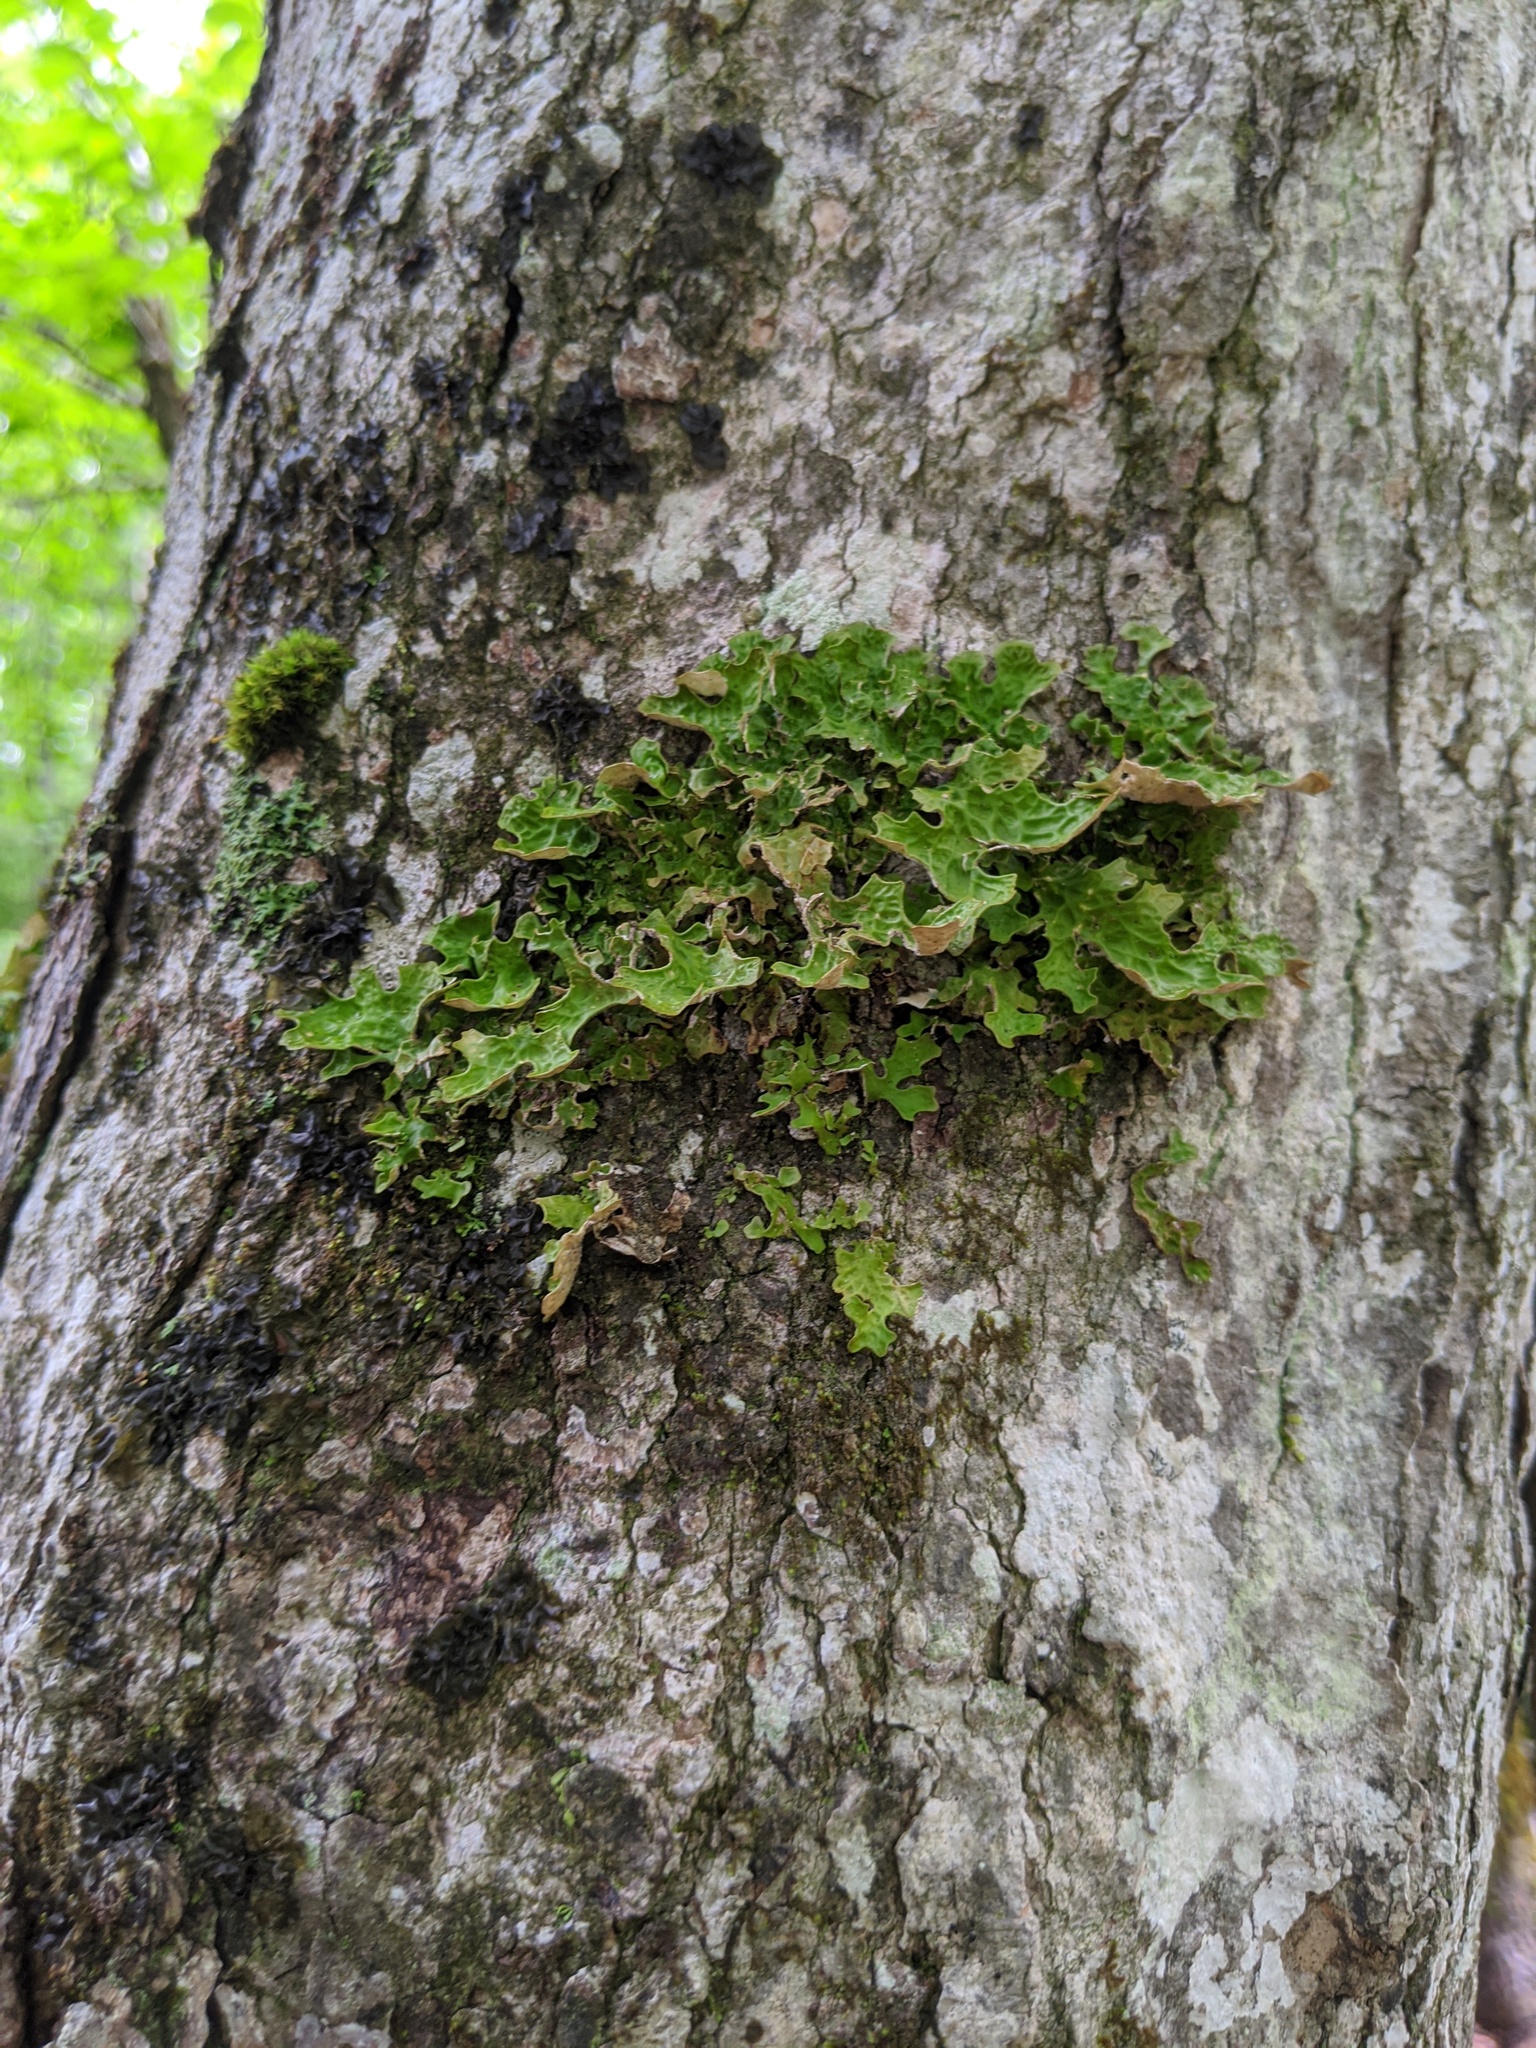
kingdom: Fungi
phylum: Ascomycota
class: Lecanoromycetes
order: Peltigerales
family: Lobariaceae
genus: Lobaria
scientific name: Lobaria pulmonaria
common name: Lungwort
